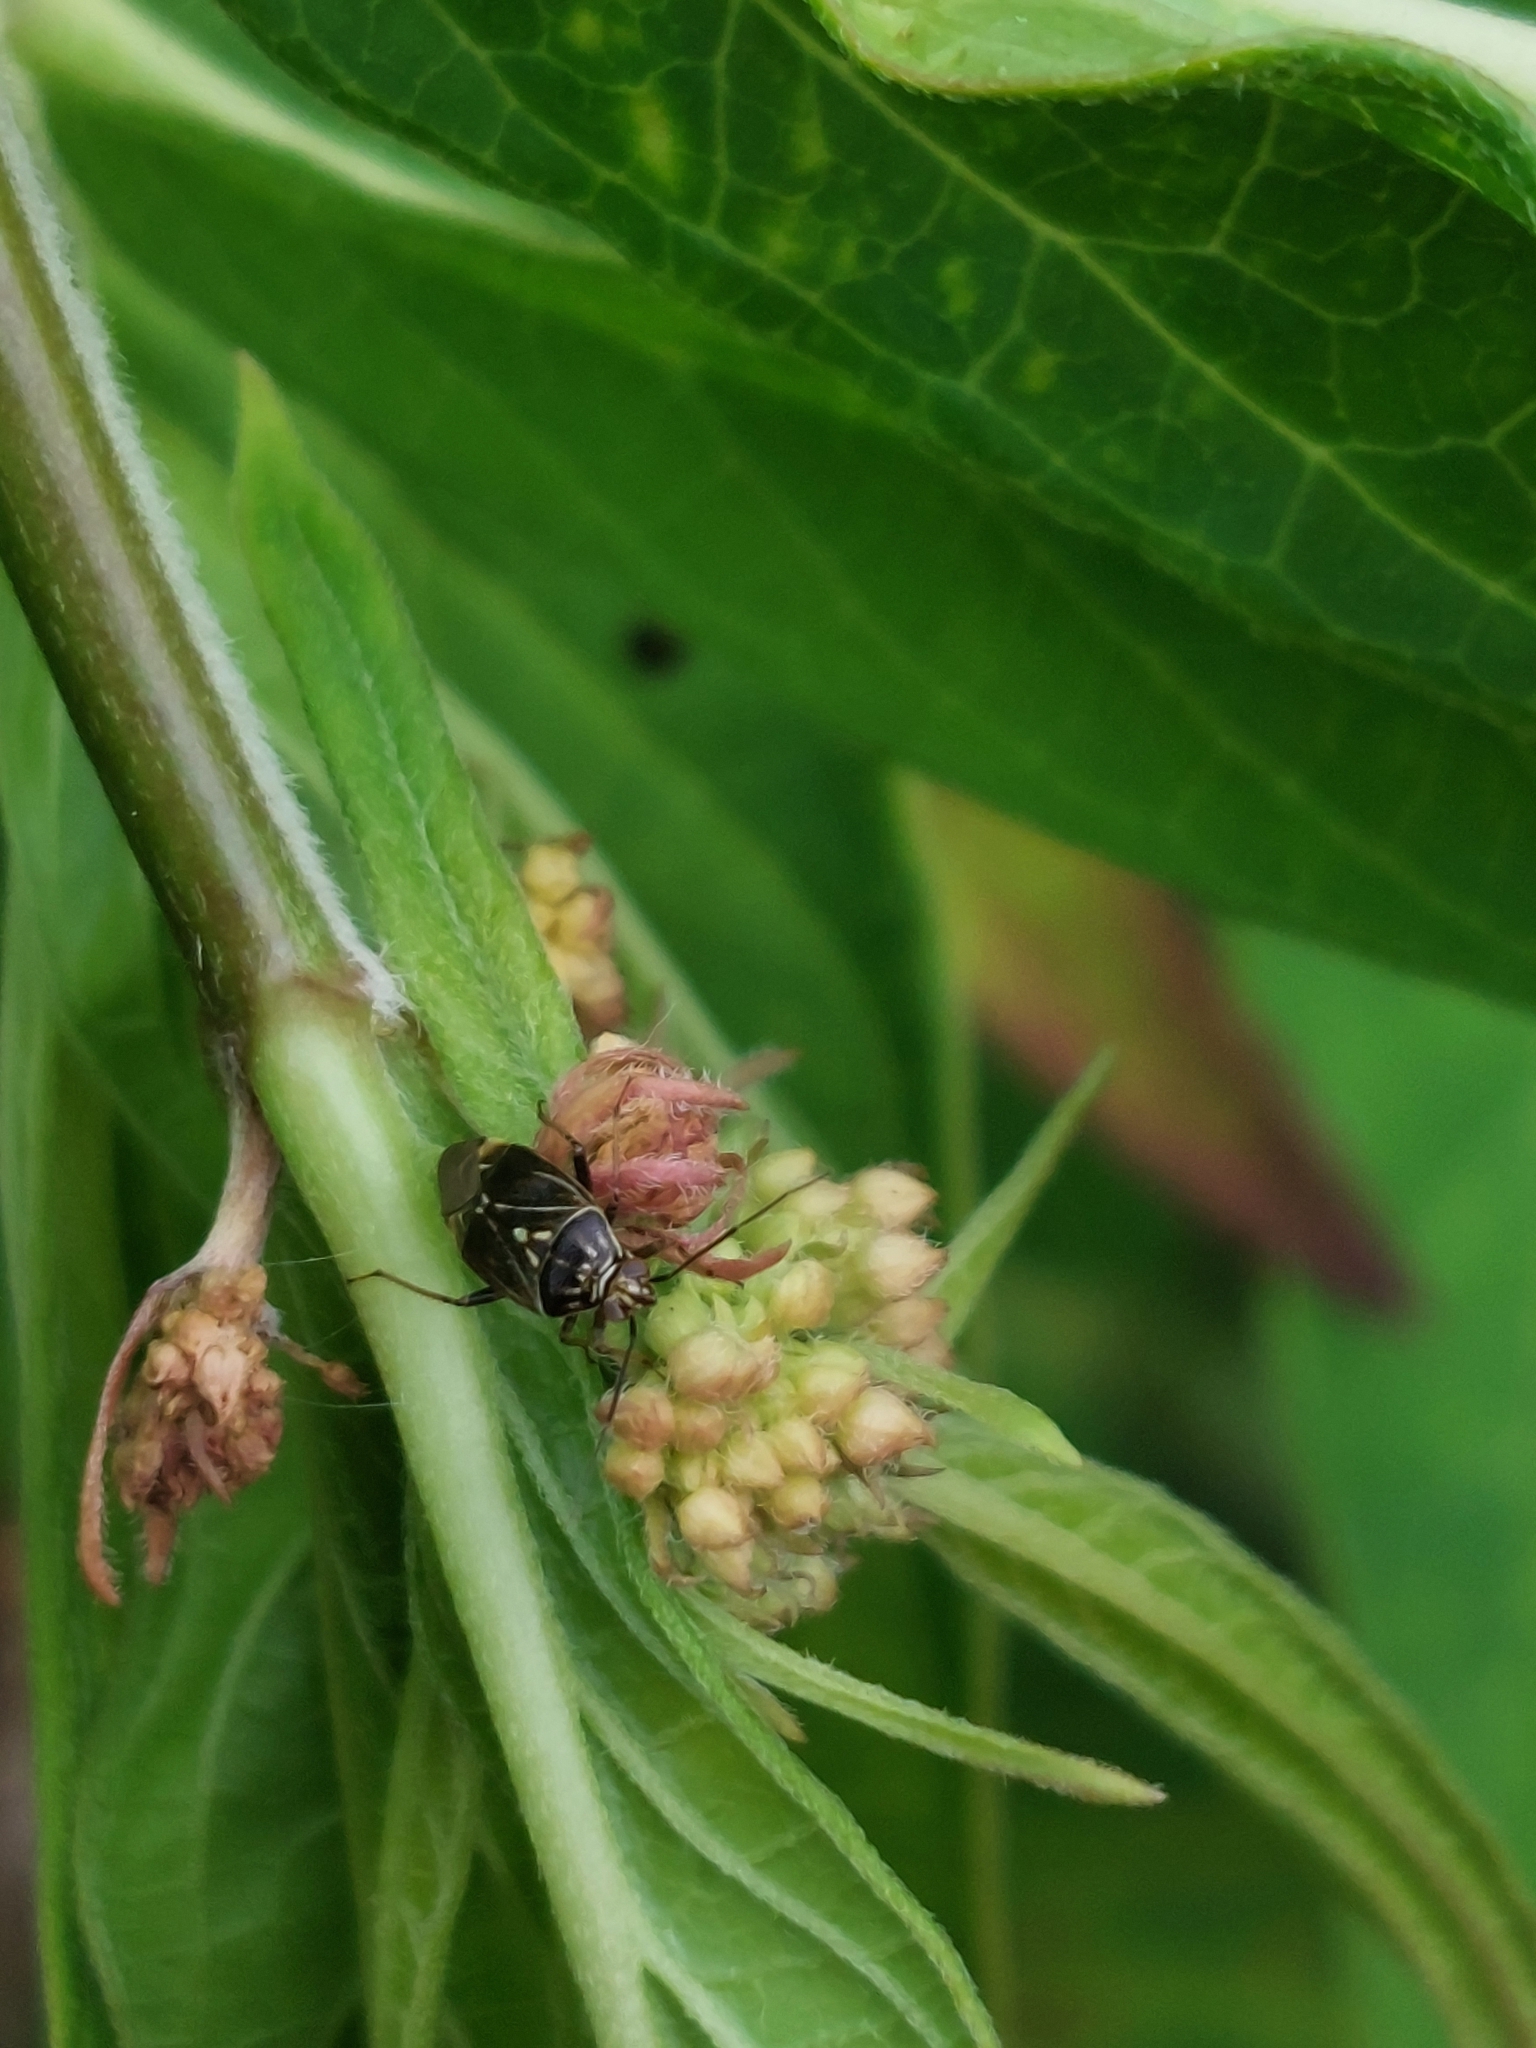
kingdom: Animalia
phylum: Arthropoda
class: Insecta
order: Hemiptera
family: Miridae
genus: Lygus
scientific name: Lygus lineolaris
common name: North american tarnished plant bug
